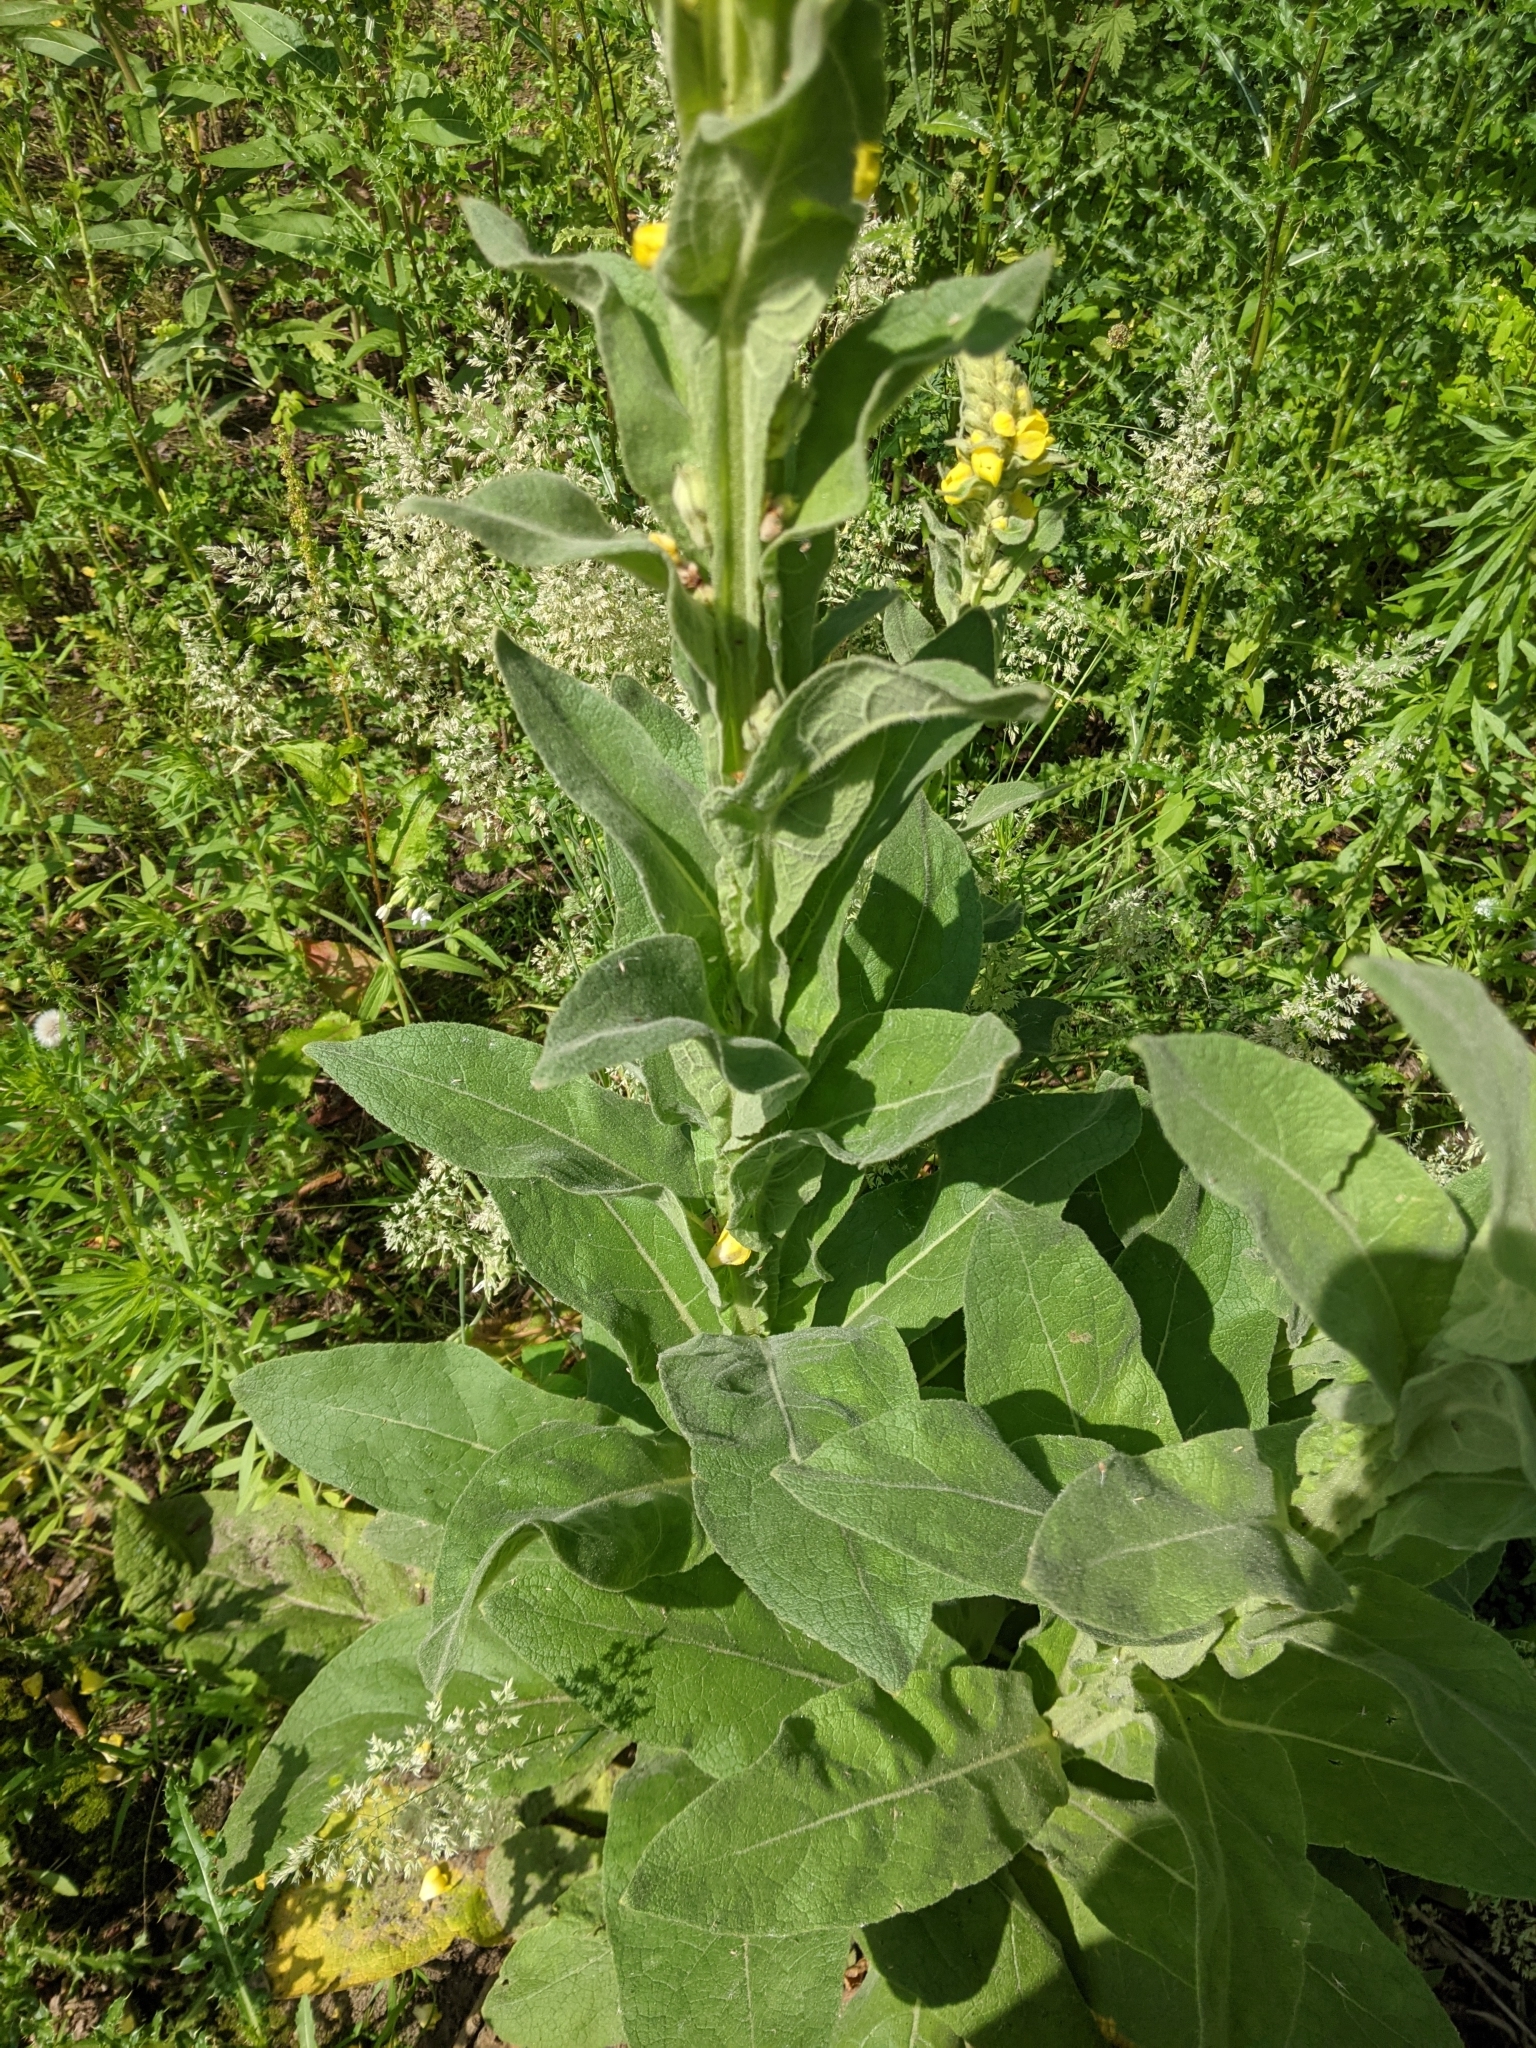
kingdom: Plantae
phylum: Tracheophyta
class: Magnoliopsida
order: Lamiales
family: Scrophulariaceae
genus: Verbascum
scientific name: Verbascum thapsus
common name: Common mullein
